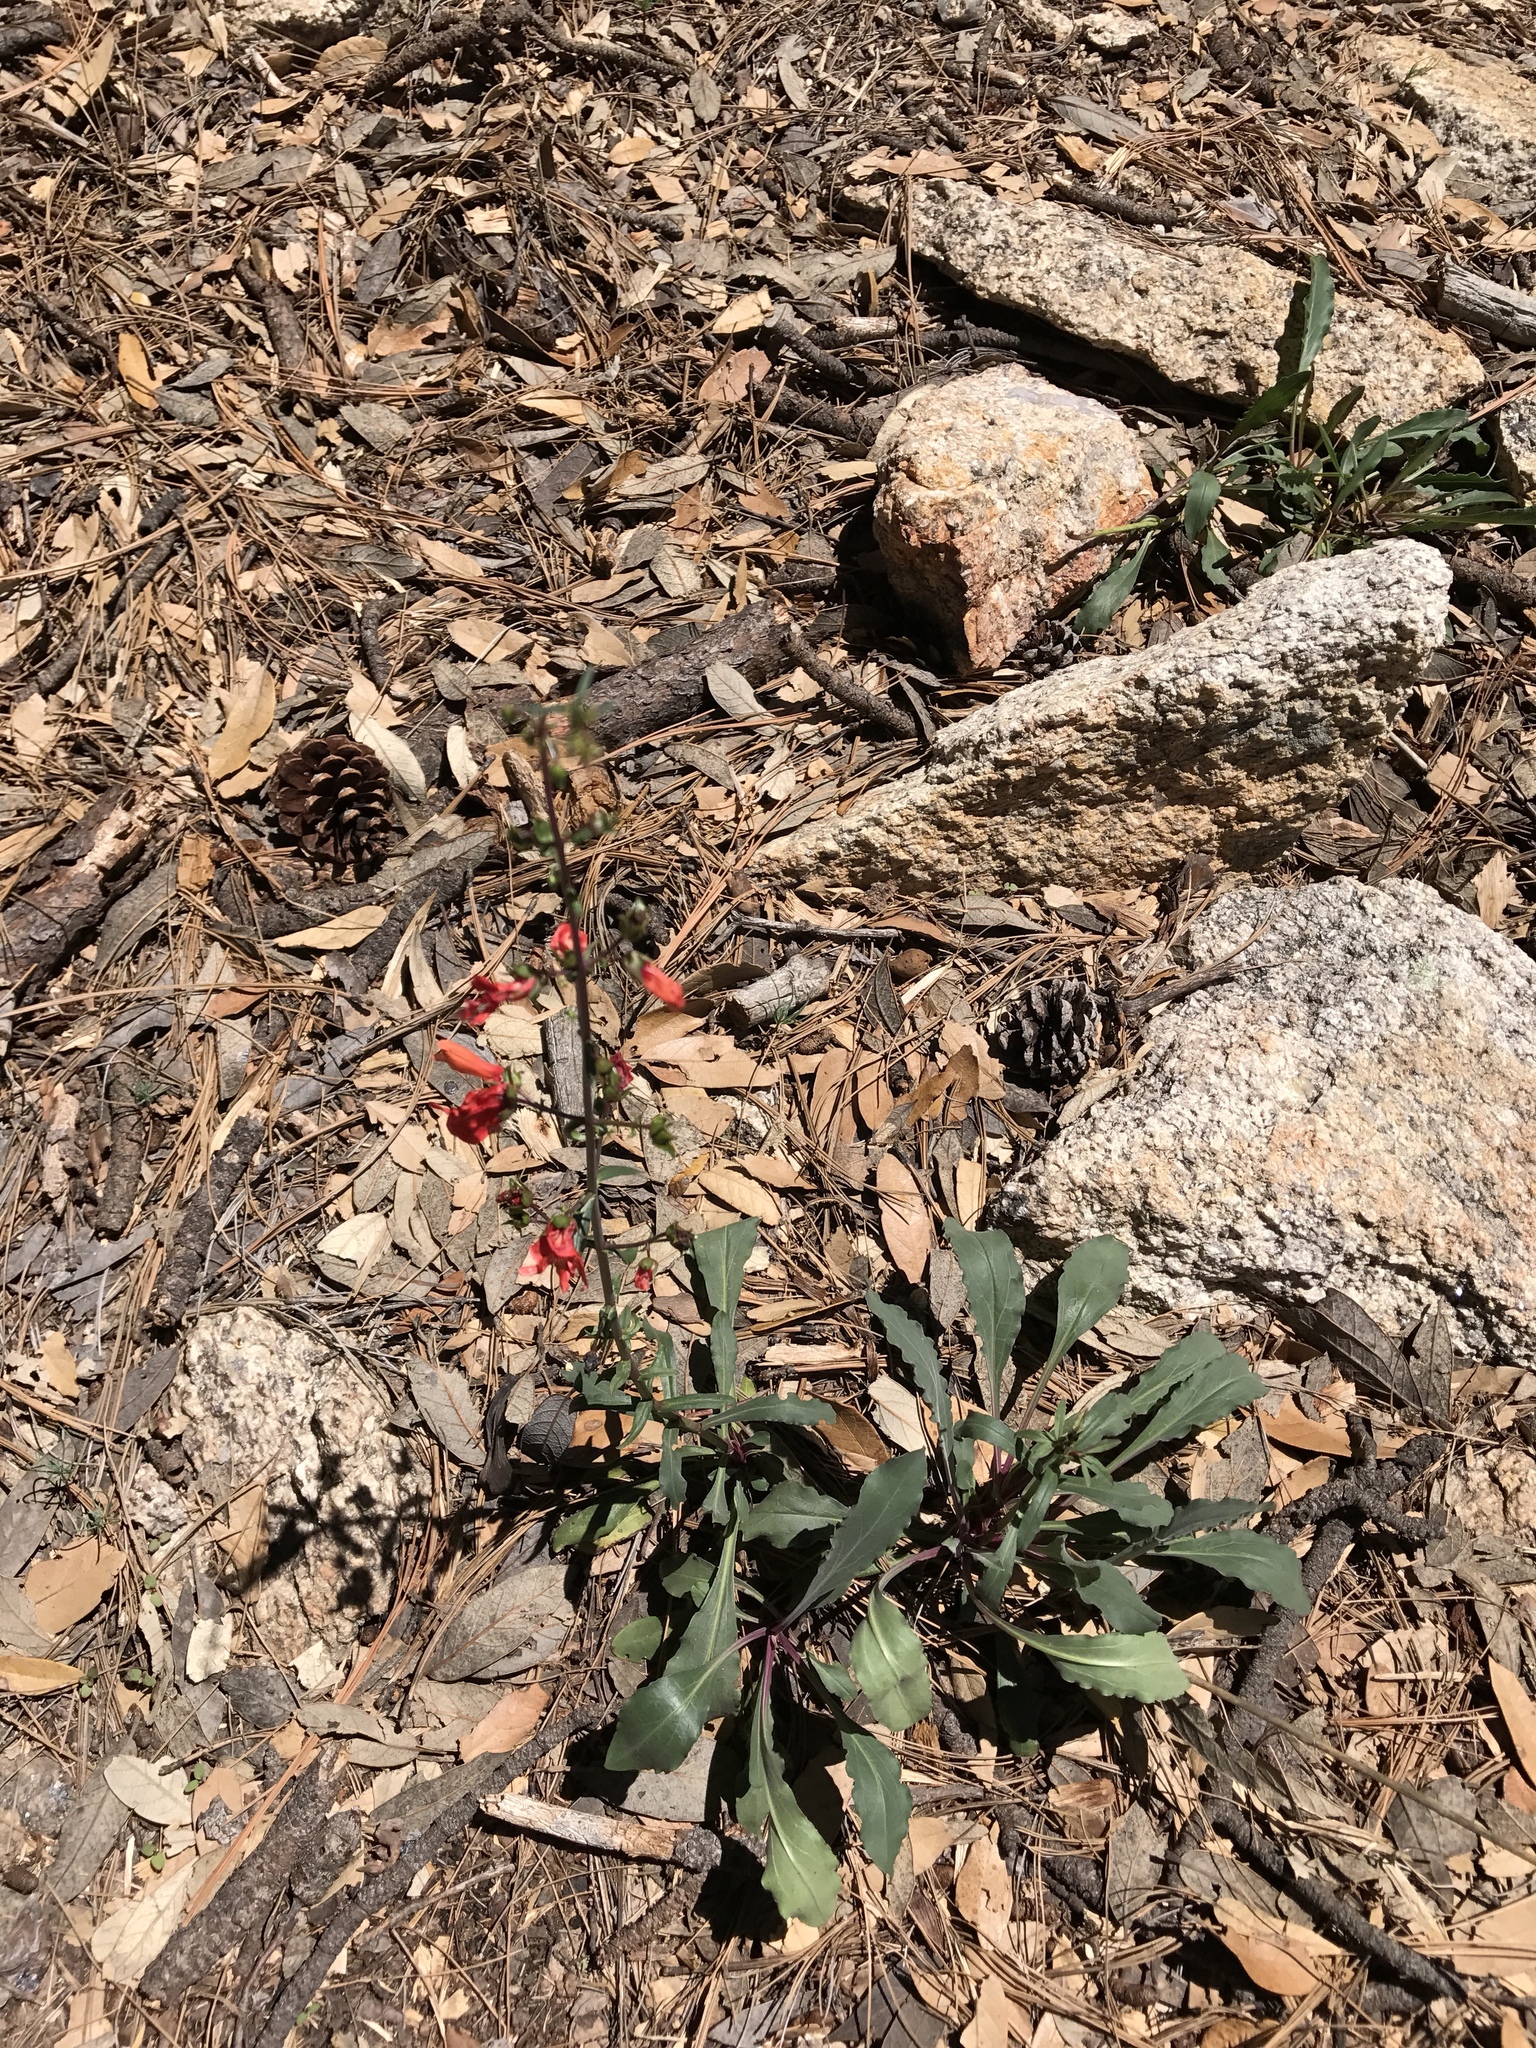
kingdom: Plantae
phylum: Tracheophyta
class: Magnoliopsida
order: Lamiales
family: Plantaginaceae
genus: Penstemon
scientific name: Penstemon barbatus
